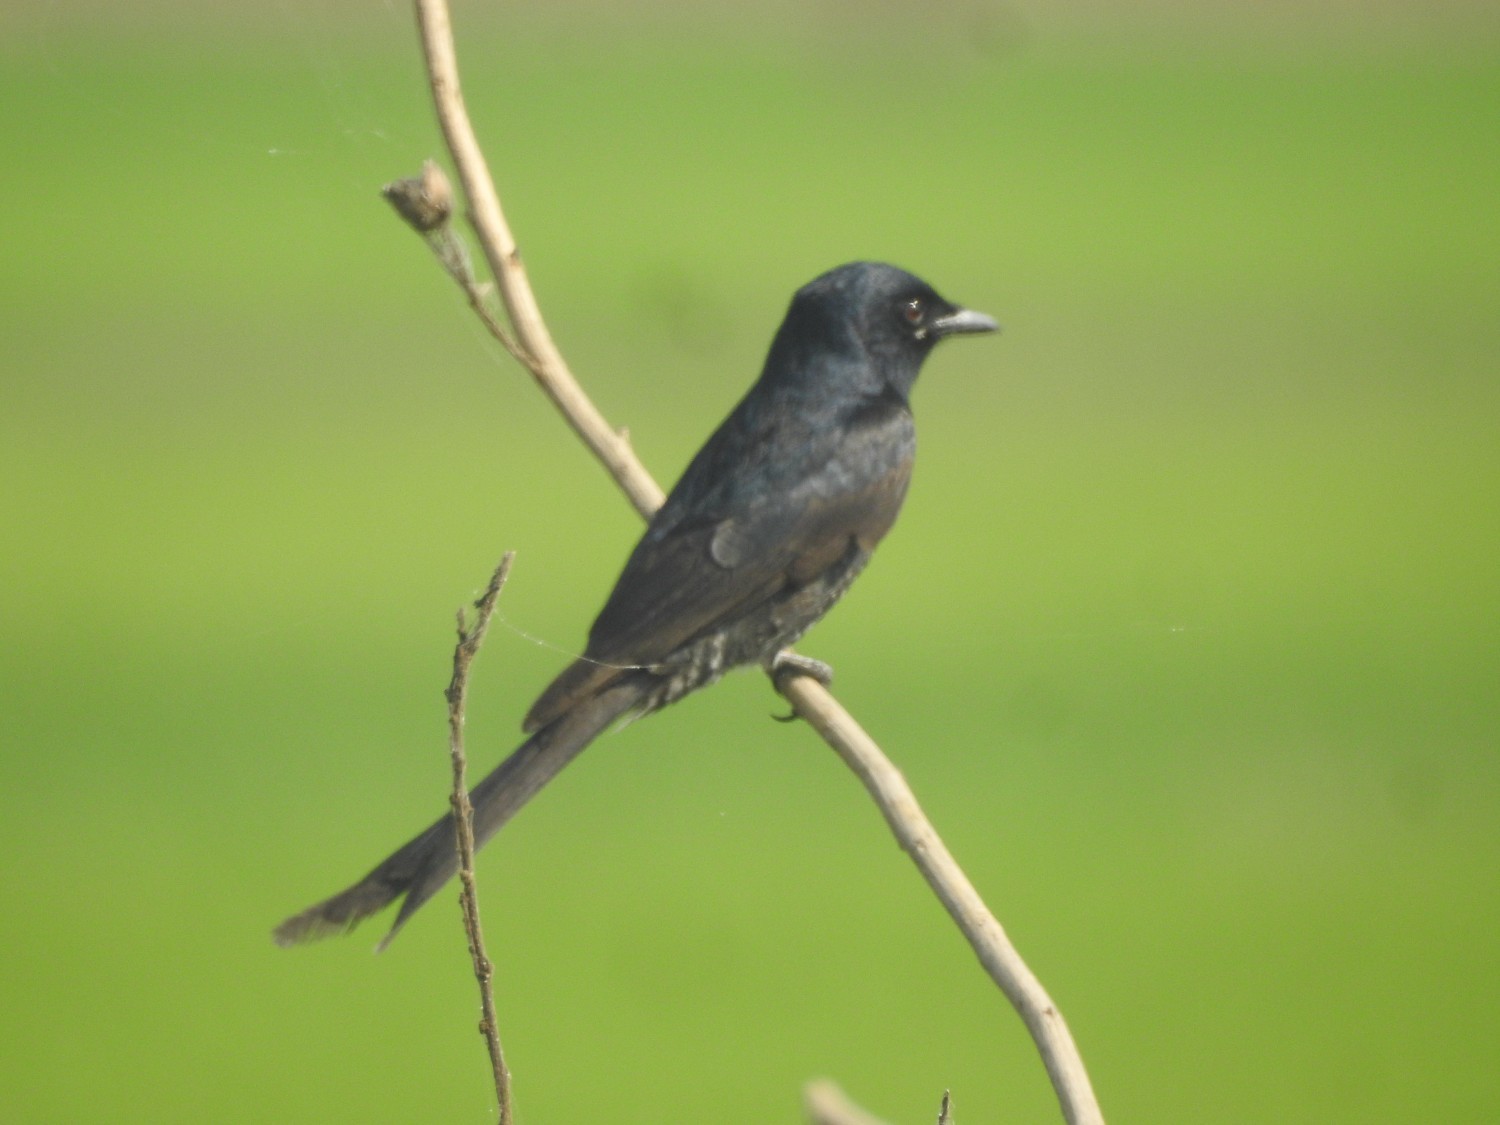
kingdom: Animalia
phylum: Chordata
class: Aves
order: Passeriformes
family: Dicruridae
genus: Dicrurus
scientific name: Dicrurus macrocercus
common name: Black drongo
